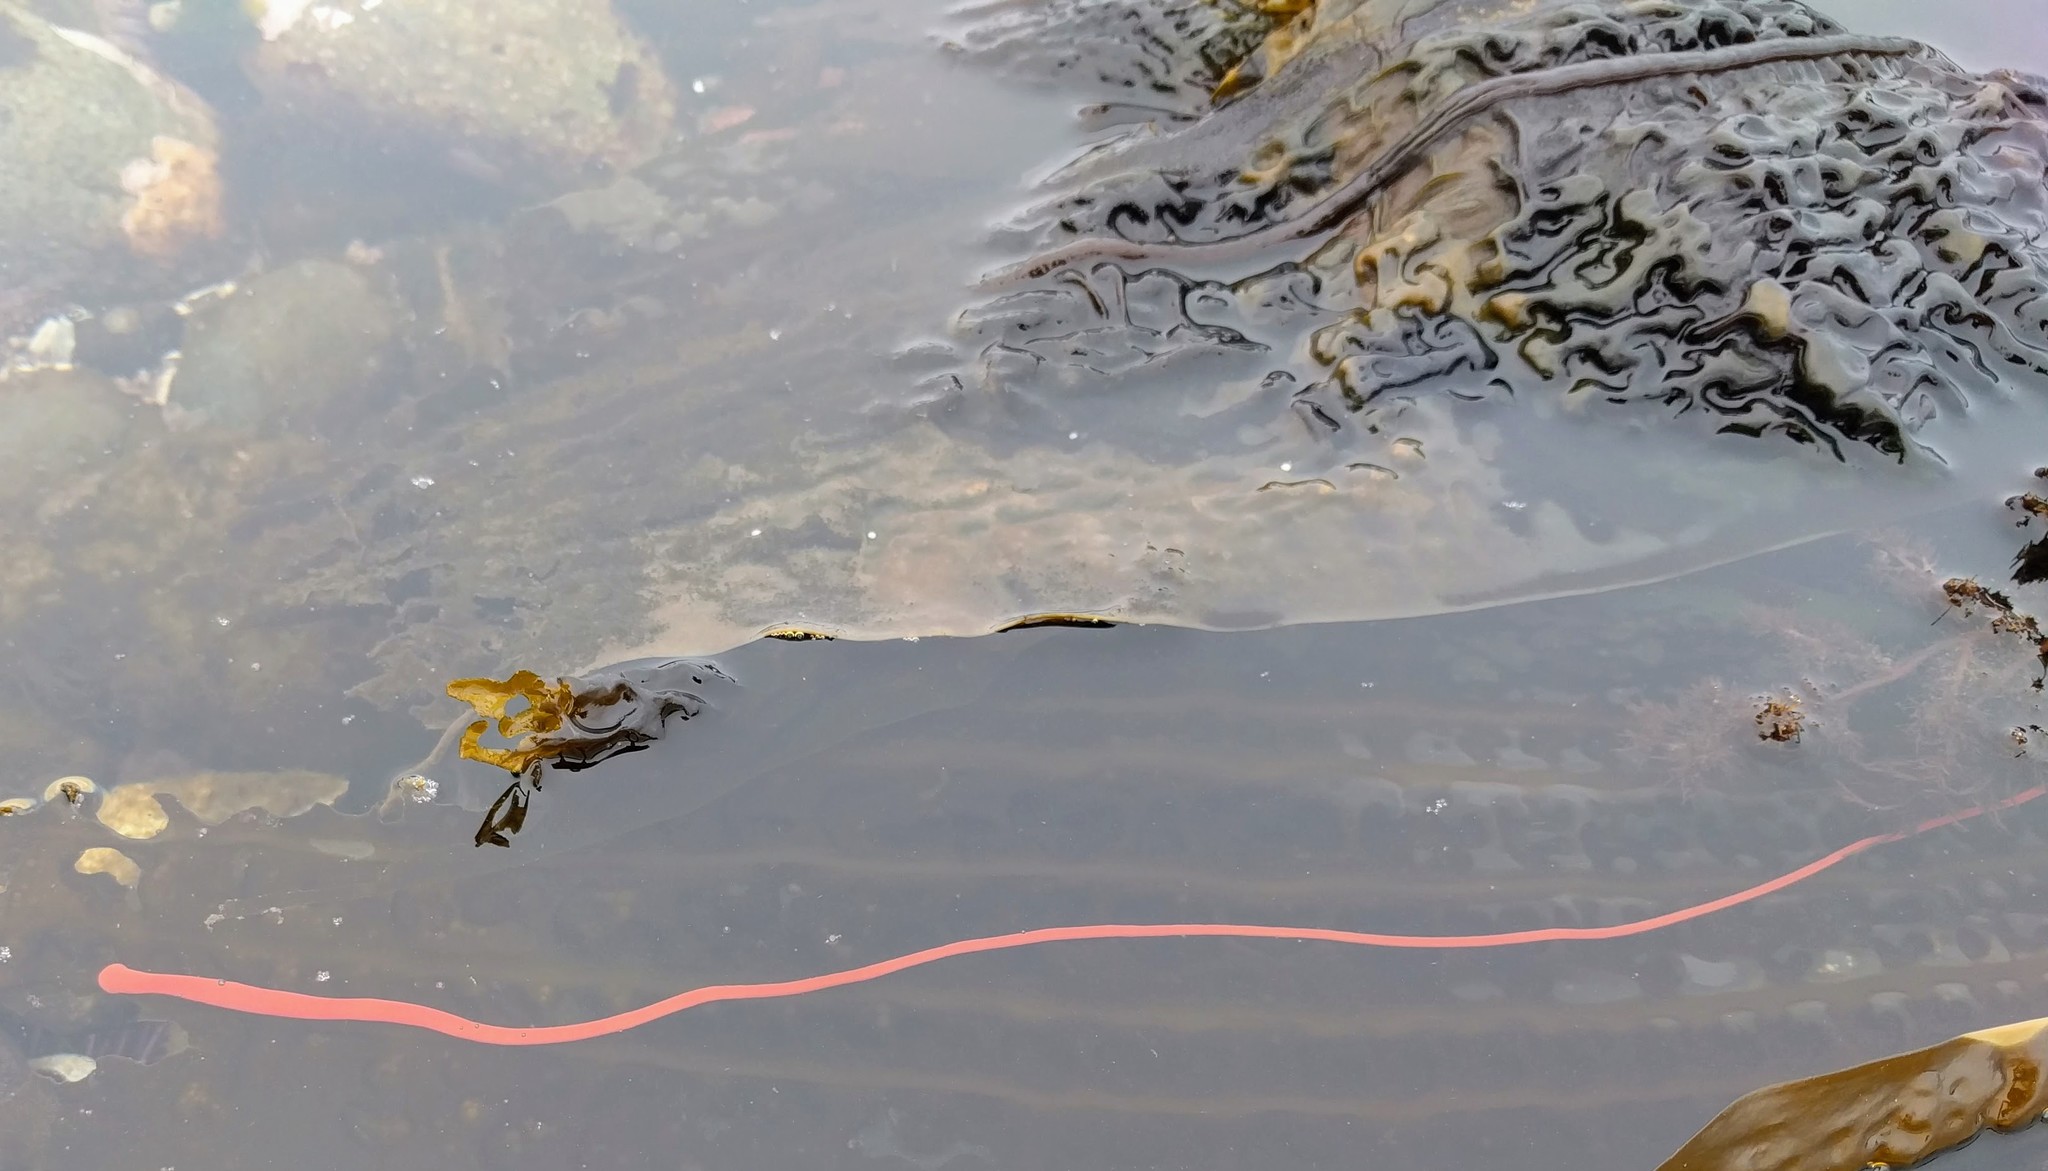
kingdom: Animalia
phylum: Nemertea
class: Palaeonemertea
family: Tubulanidae
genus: Tubulanus
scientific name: Tubulanus polymorphus
